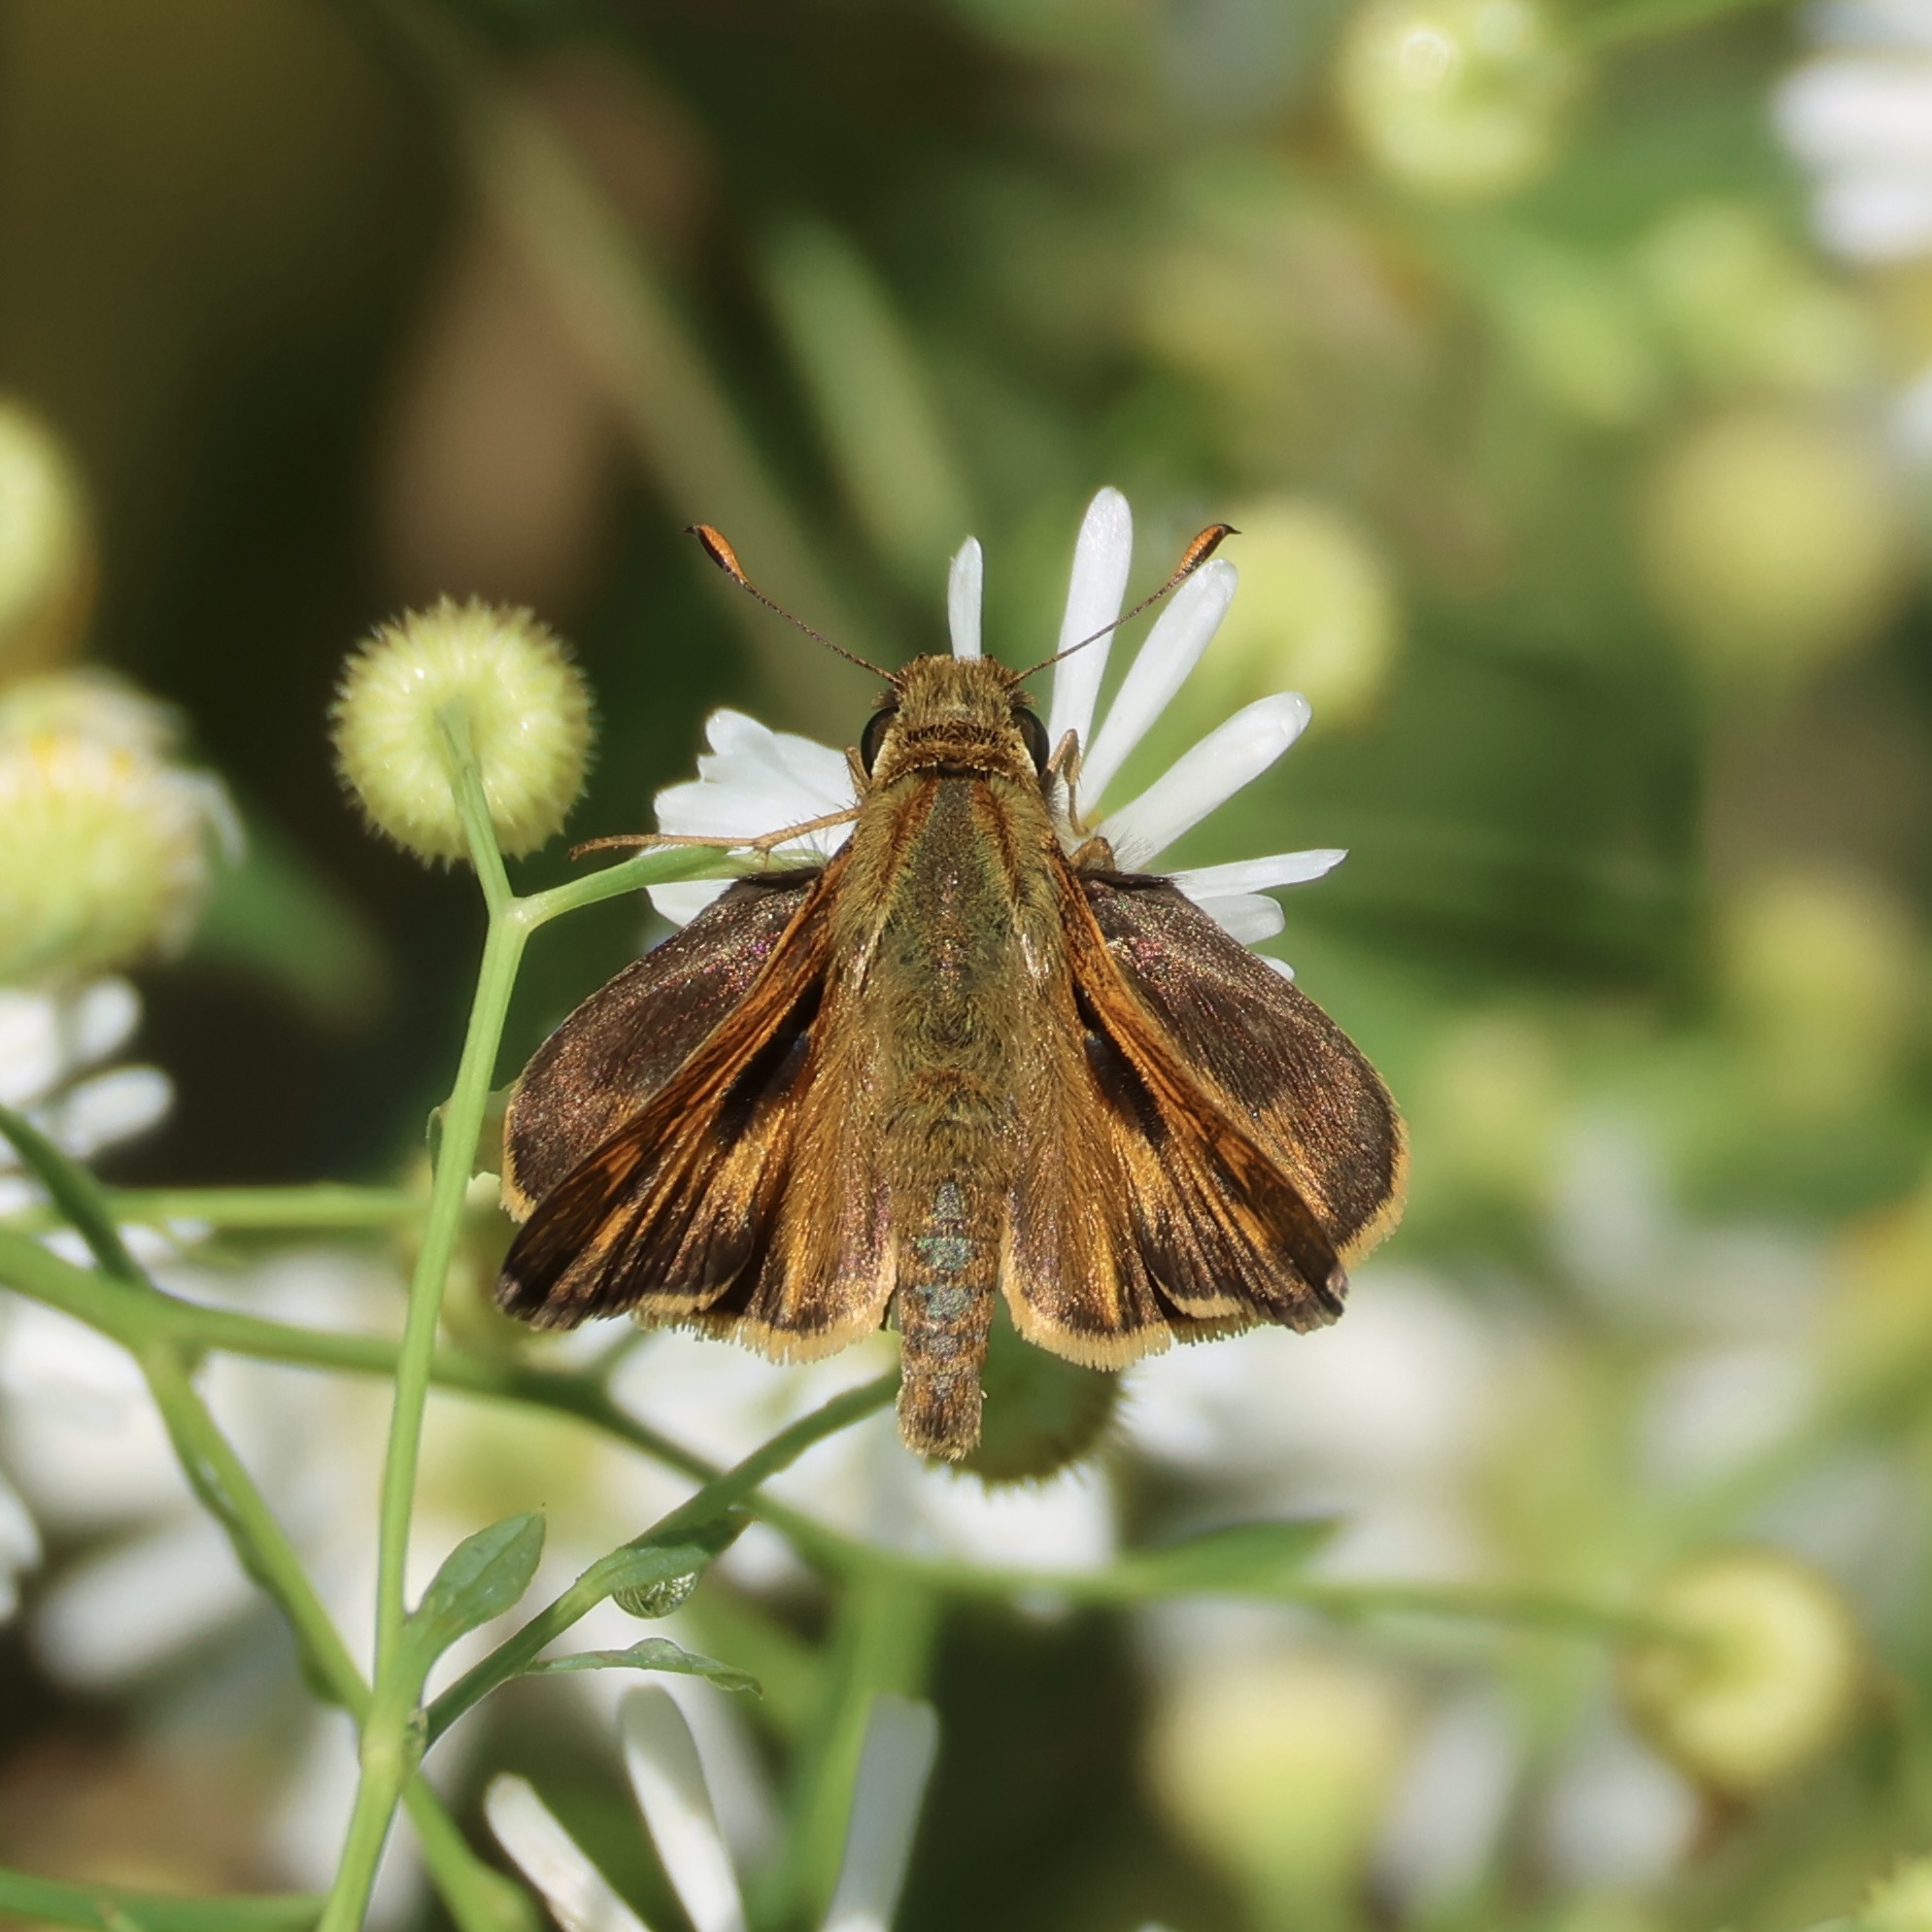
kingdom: Animalia
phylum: Arthropoda
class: Insecta
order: Lepidoptera
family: Hesperiidae
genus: Atalopedes
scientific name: Atalopedes
